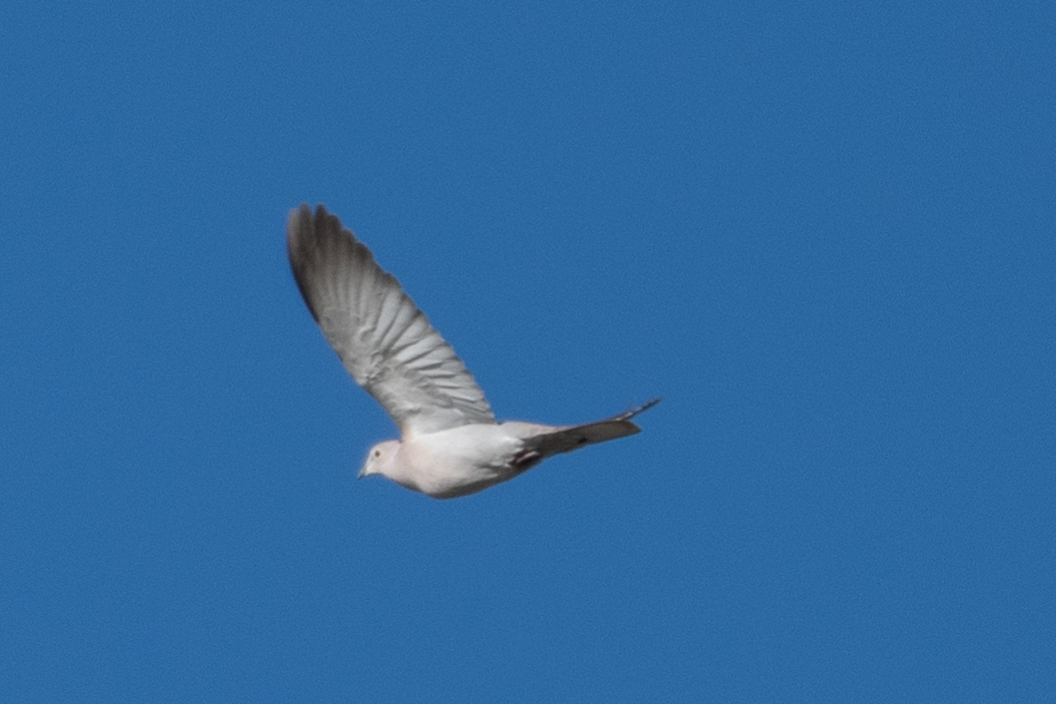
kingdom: Animalia
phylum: Chordata
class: Aves
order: Columbiformes
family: Columbidae
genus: Streptopelia
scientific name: Streptopelia decaocto
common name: Eurasian collared dove
